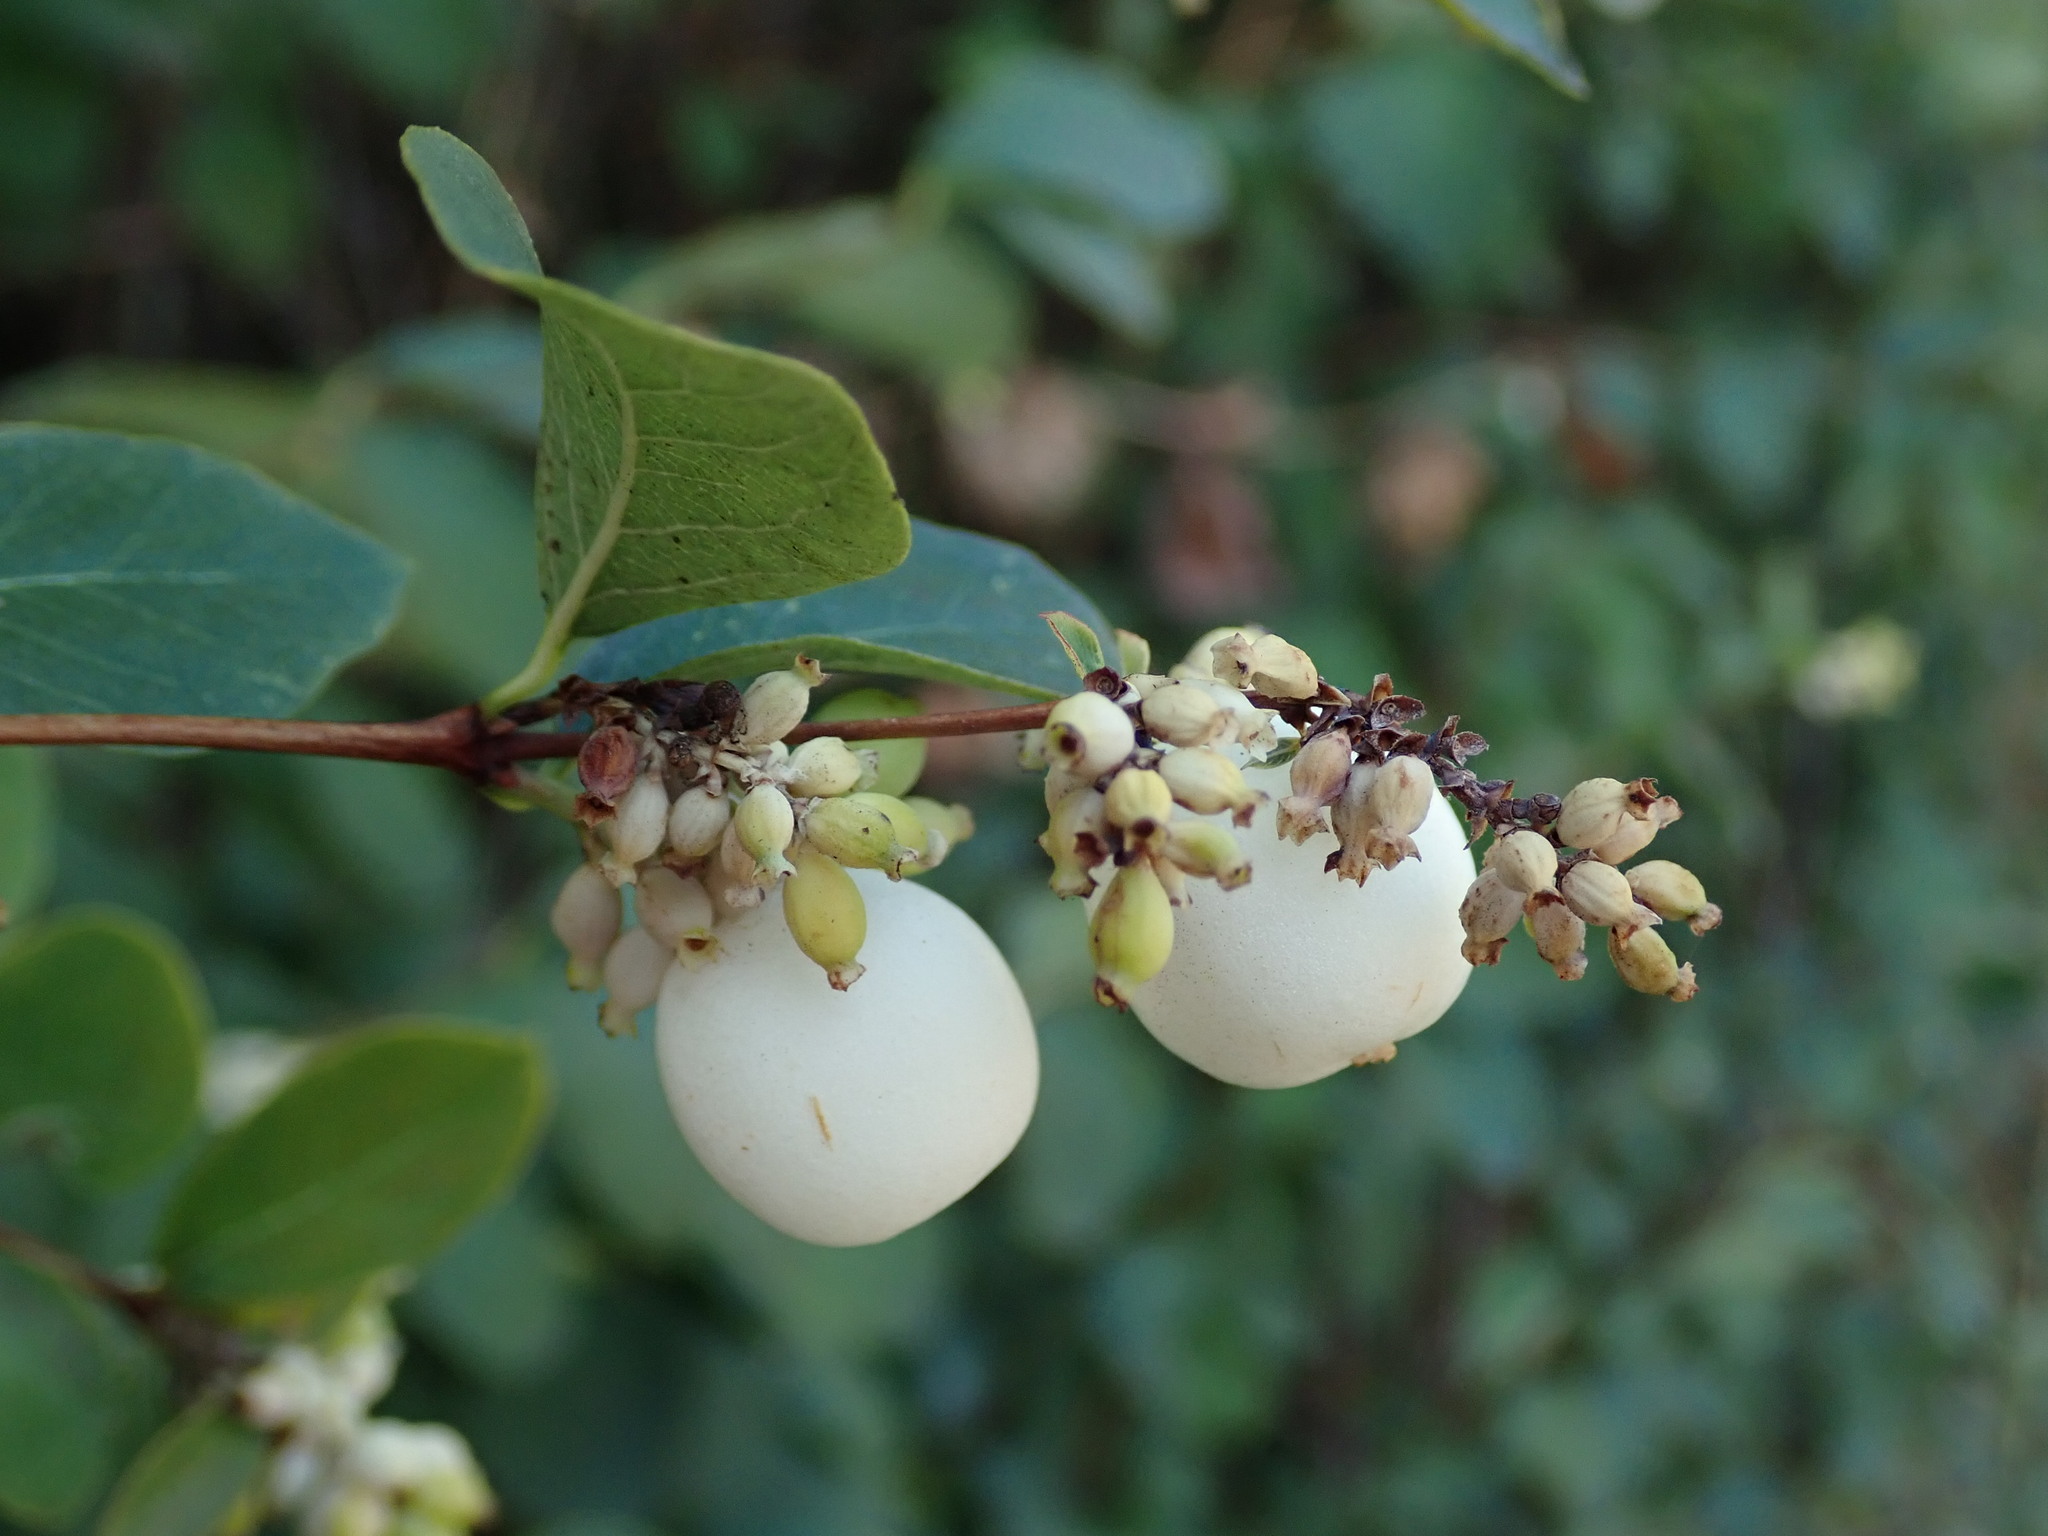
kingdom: Plantae
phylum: Tracheophyta
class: Magnoliopsida
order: Dipsacales
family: Caprifoliaceae
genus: Symphoricarpos
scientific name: Symphoricarpos albus
